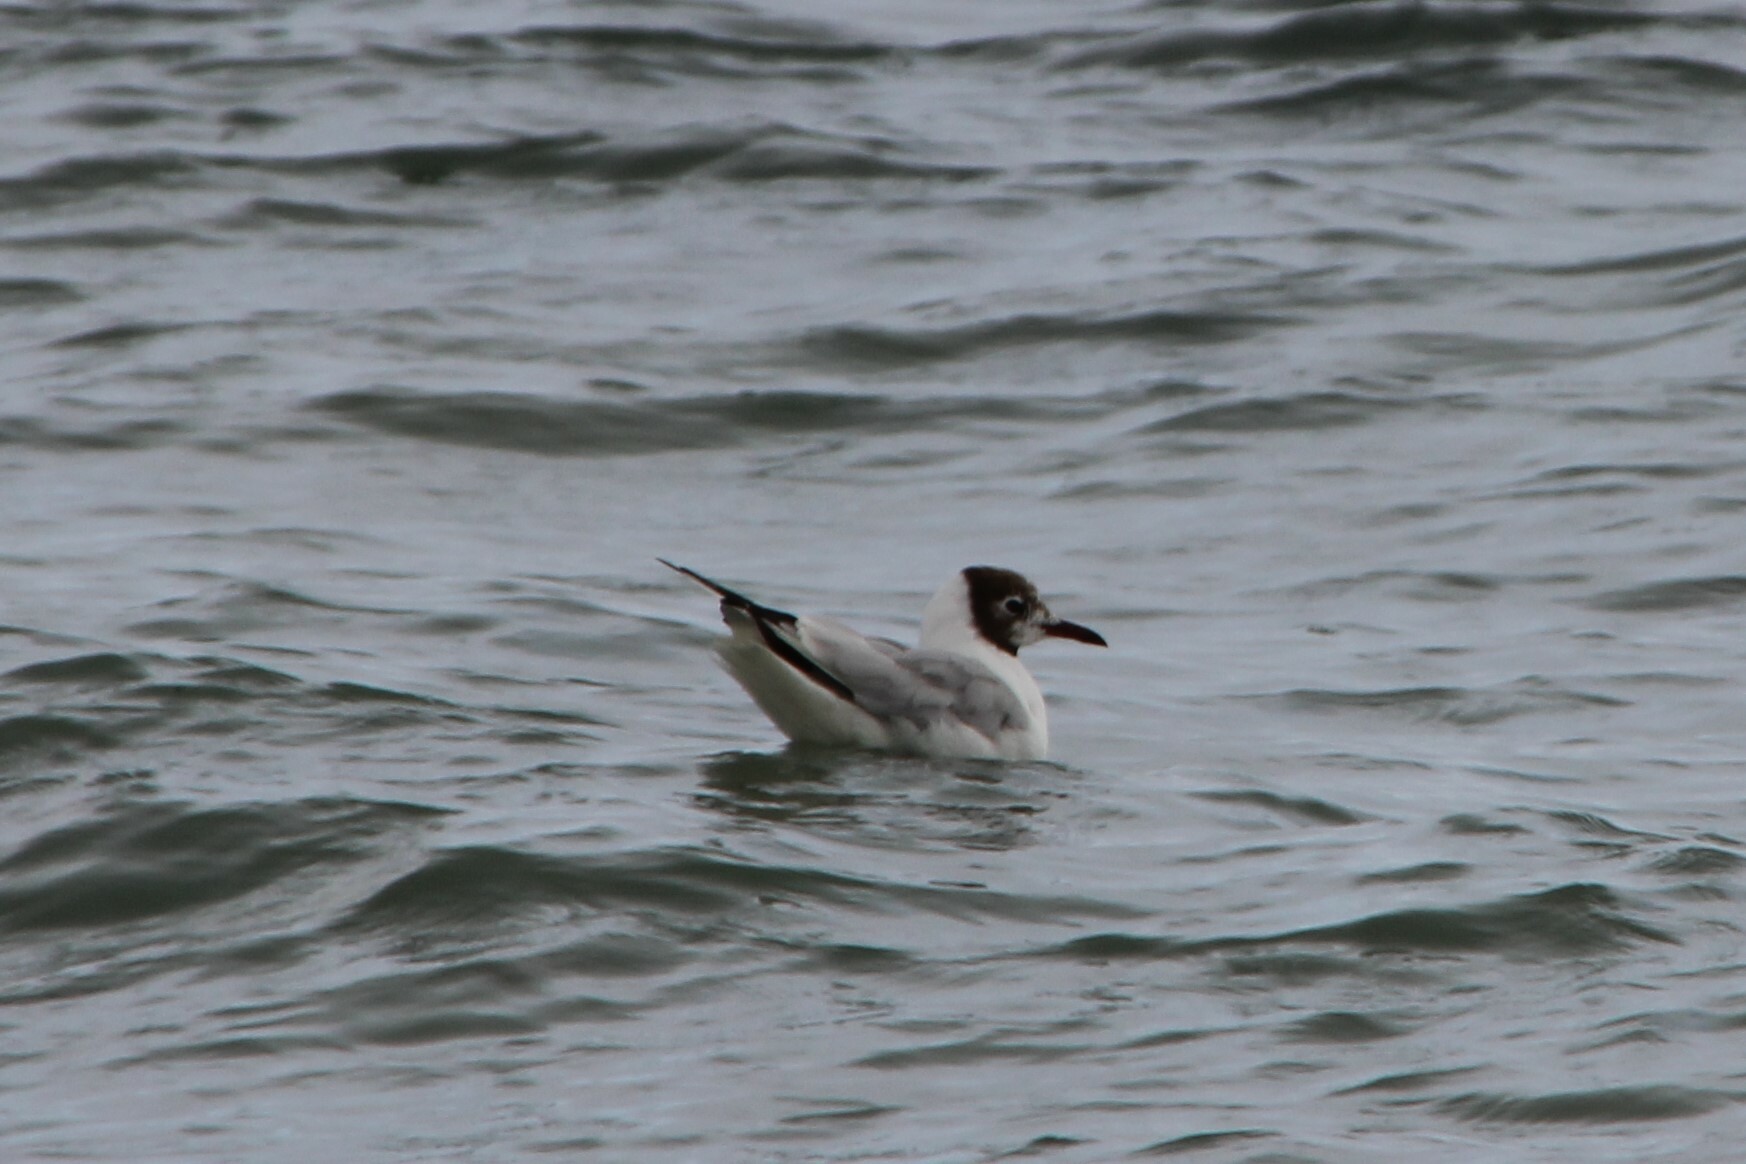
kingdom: Animalia
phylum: Chordata
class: Aves
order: Charadriiformes
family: Laridae
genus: Chroicocephalus
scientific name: Chroicocephalus ridibundus
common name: Black-headed gull
